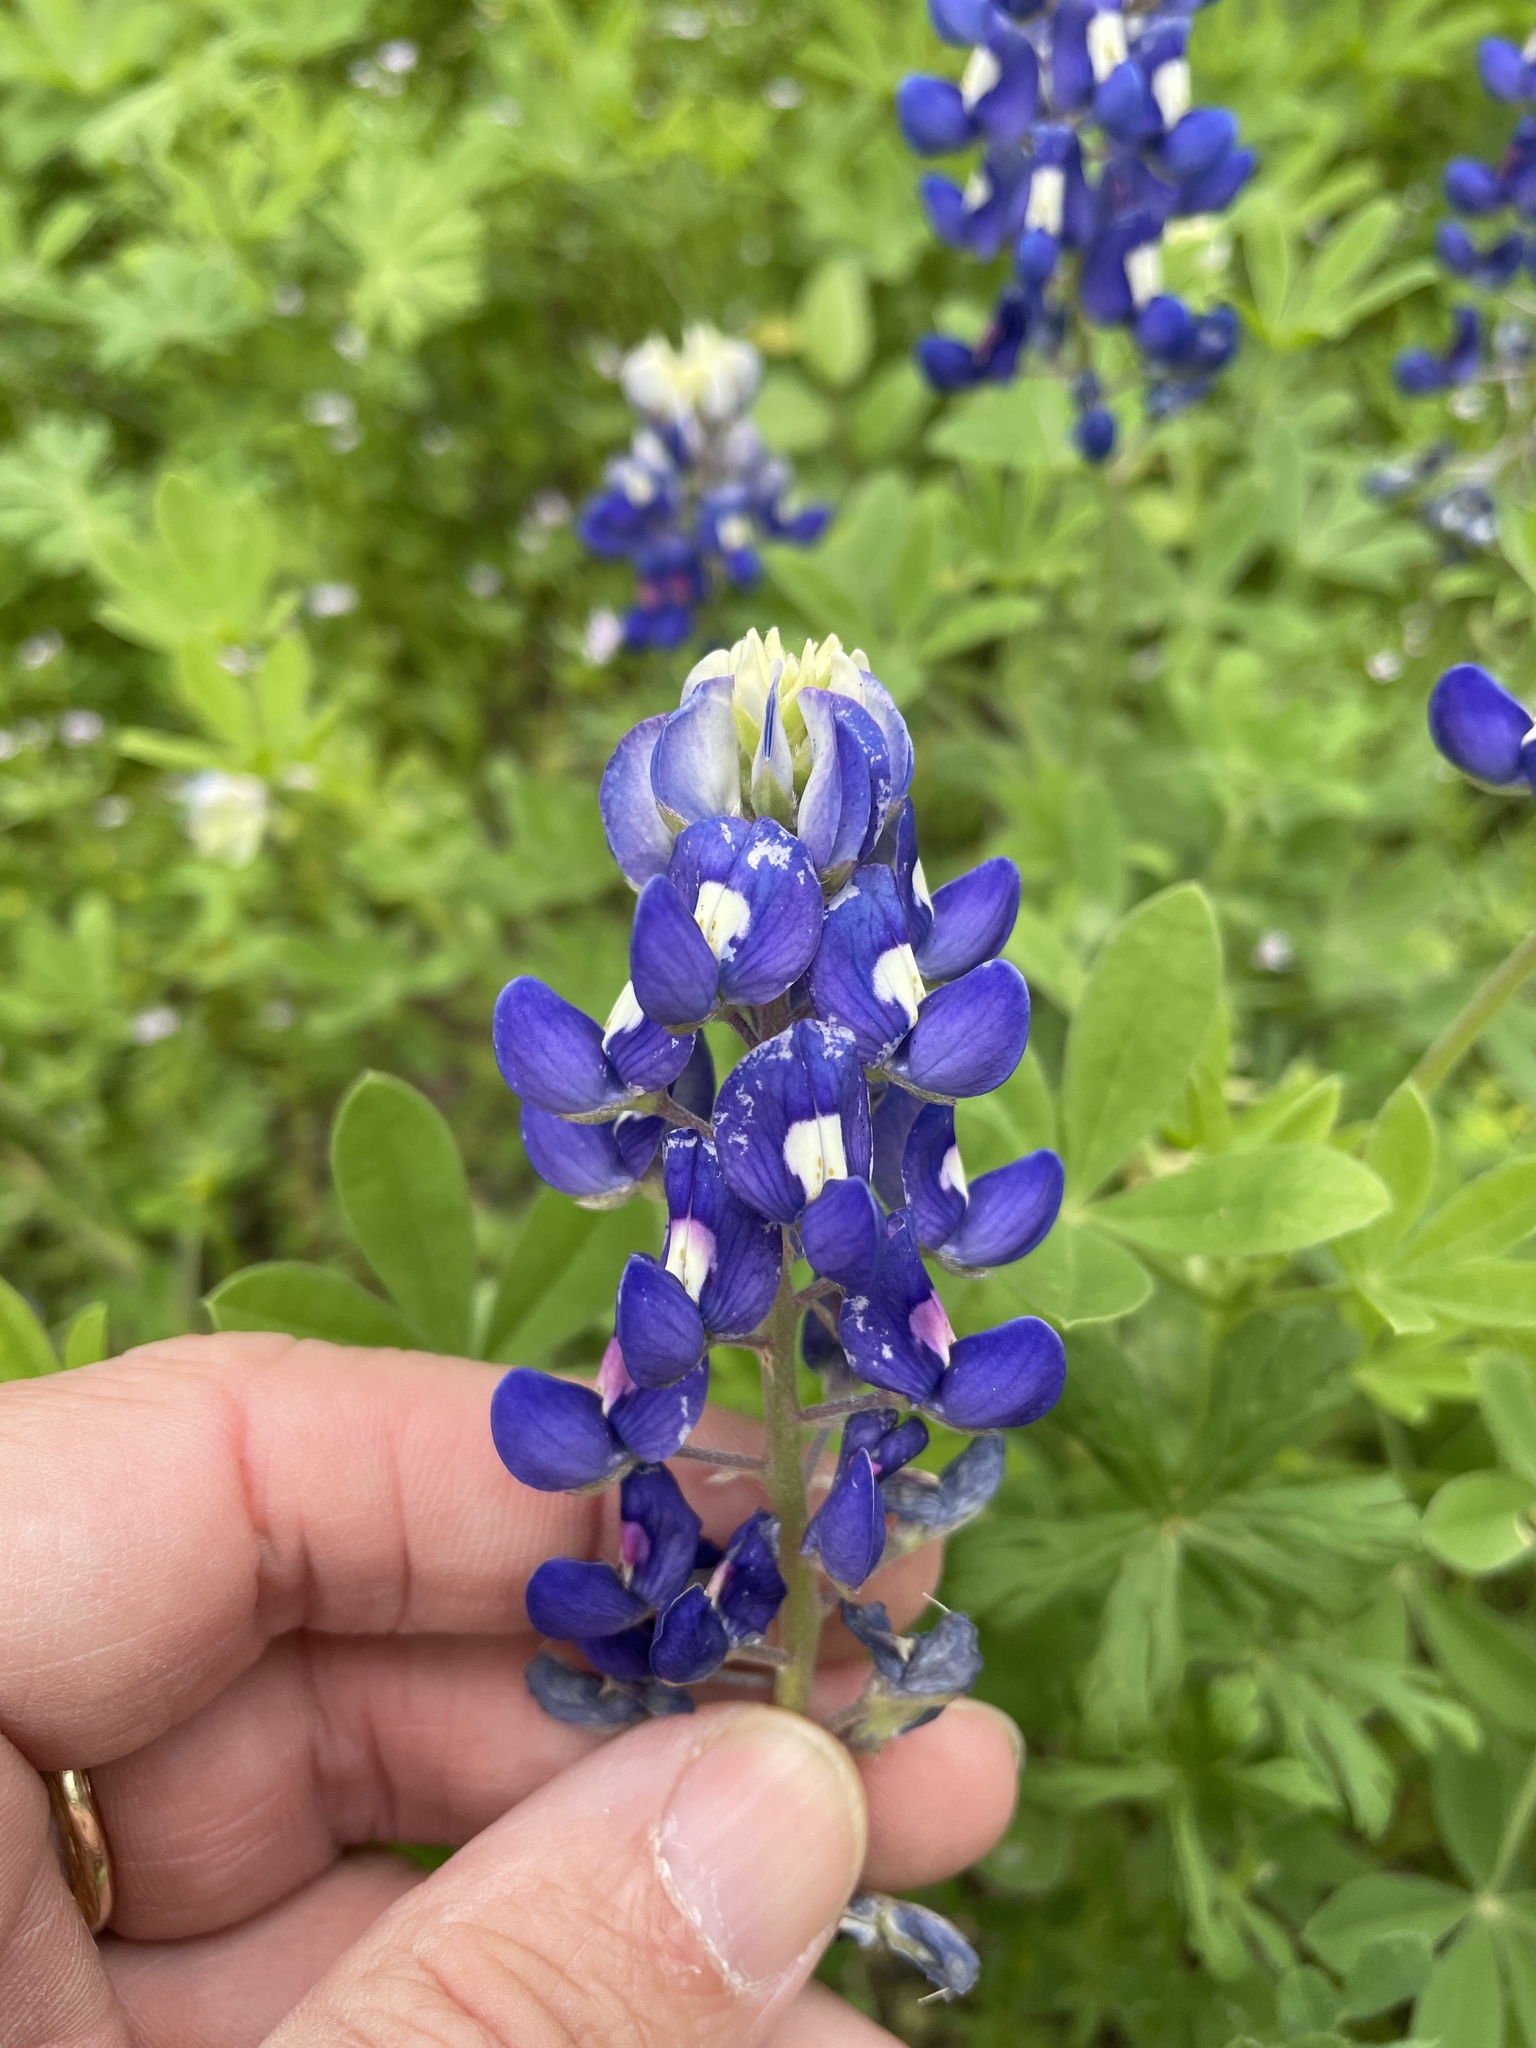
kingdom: Plantae
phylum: Tracheophyta
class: Magnoliopsida
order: Fabales
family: Fabaceae
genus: Lupinus
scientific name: Lupinus texensis
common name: Texas bluebonnet
